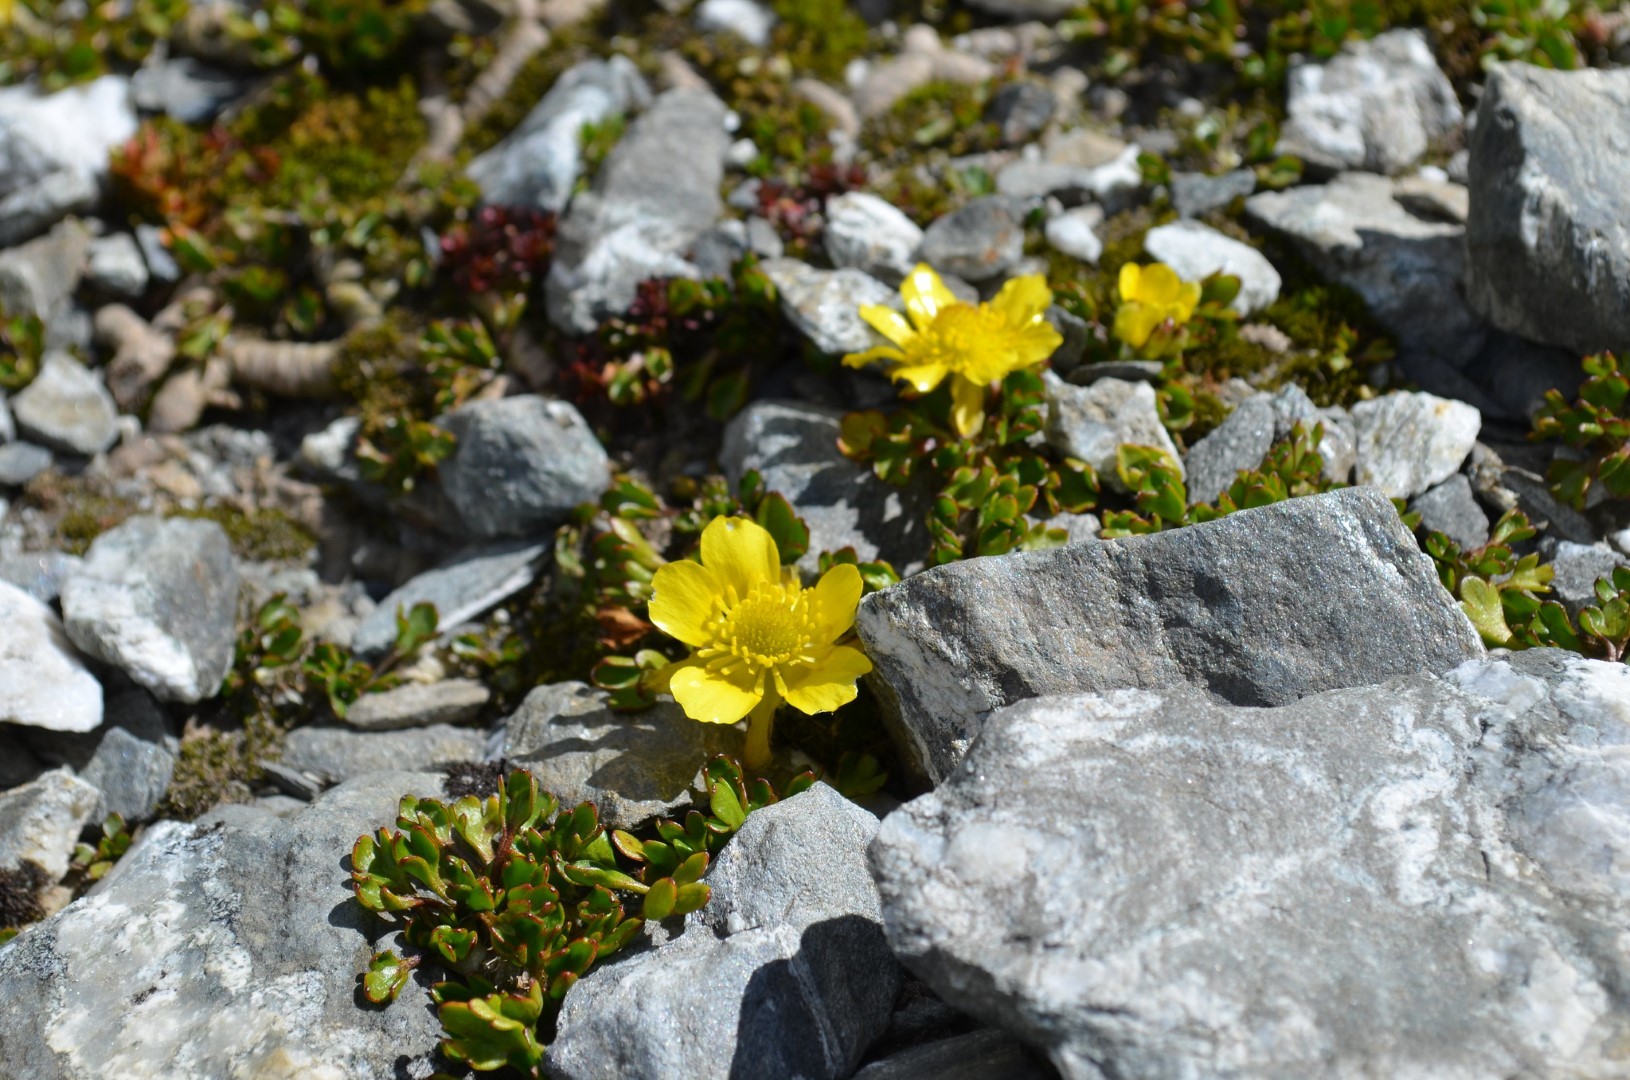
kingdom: Plantae
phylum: Tracheophyta
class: Magnoliopsida
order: Ranunculales
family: Ranunculaceae
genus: Ranunculus
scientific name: Ranunculus pachyrrhizus
